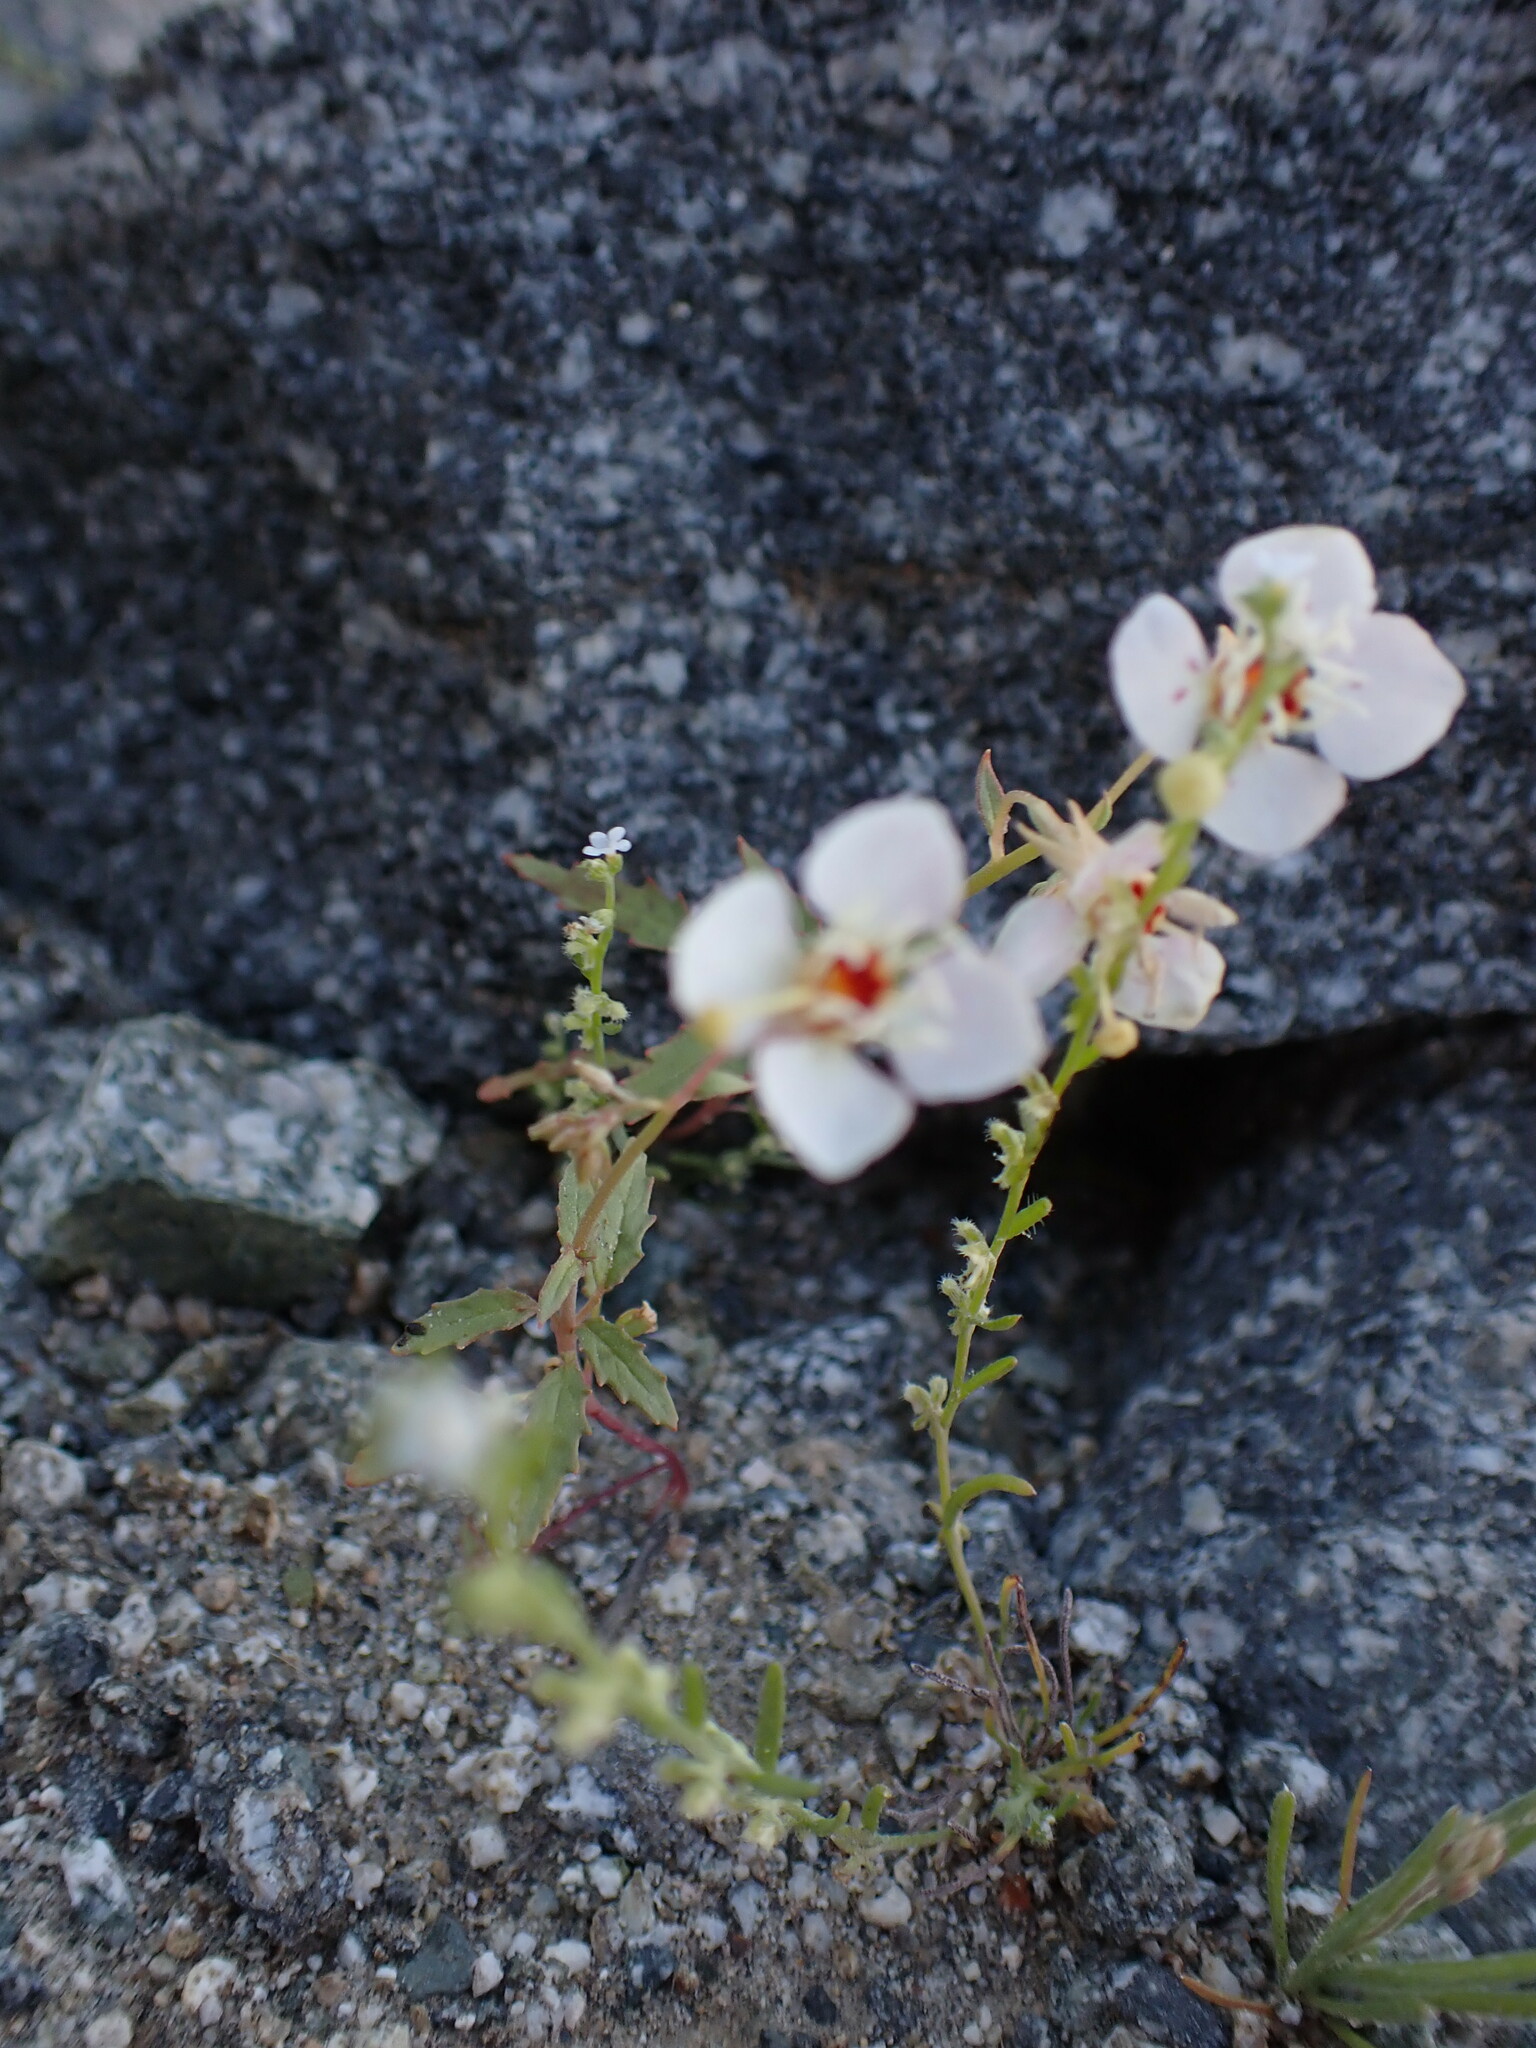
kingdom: Plantae
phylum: Tracheophyta
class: Magnoliopsida
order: Myrtales
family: Onagraceae
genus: Chylismia
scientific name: Chylismia claviformis
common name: Browneyes
